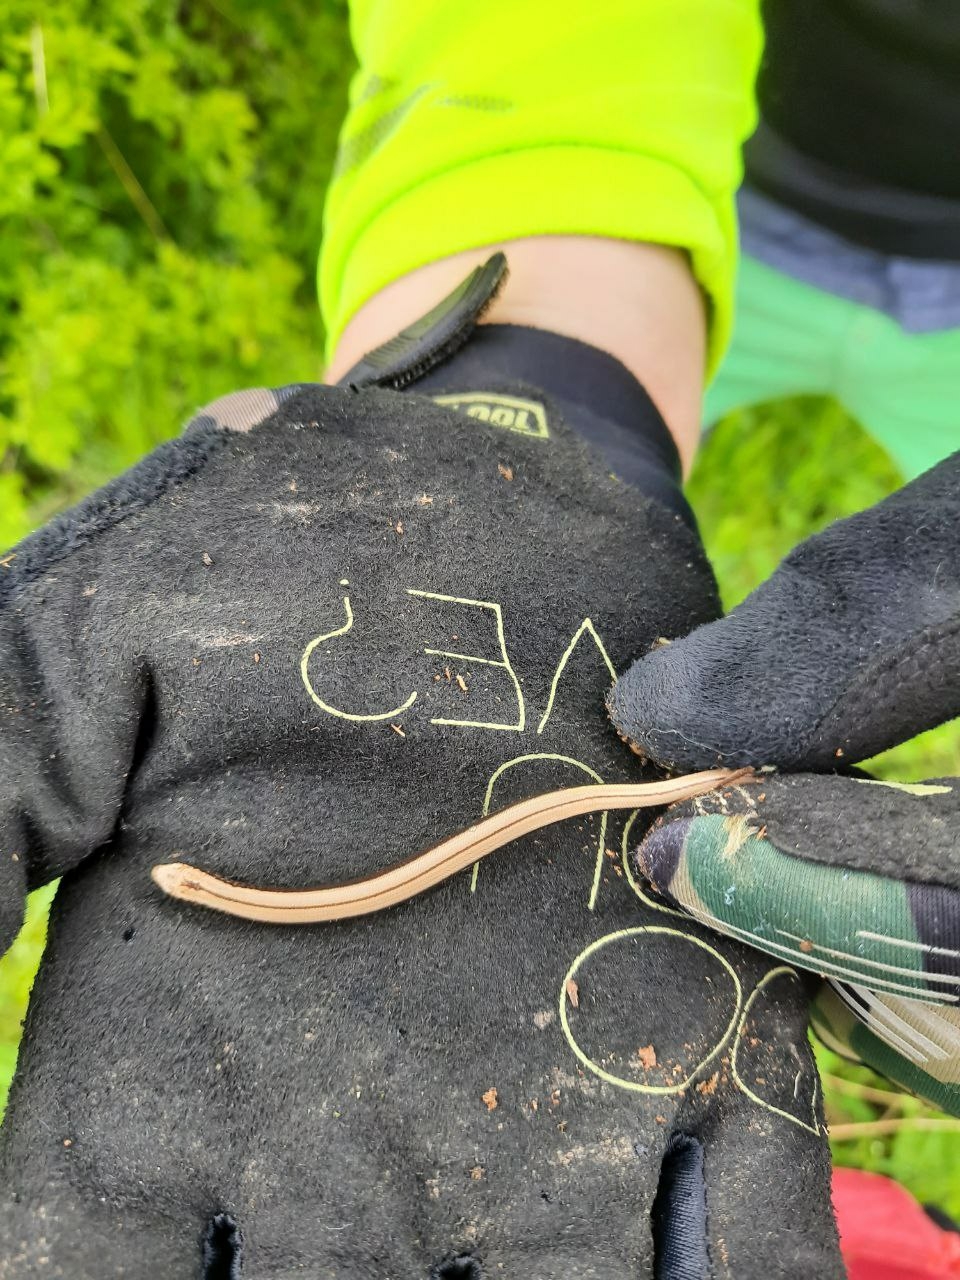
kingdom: Animalia
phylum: Chordata
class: Squamata
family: Anguidae
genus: Anguis
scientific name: Anguis fragilis
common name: Slow worm
